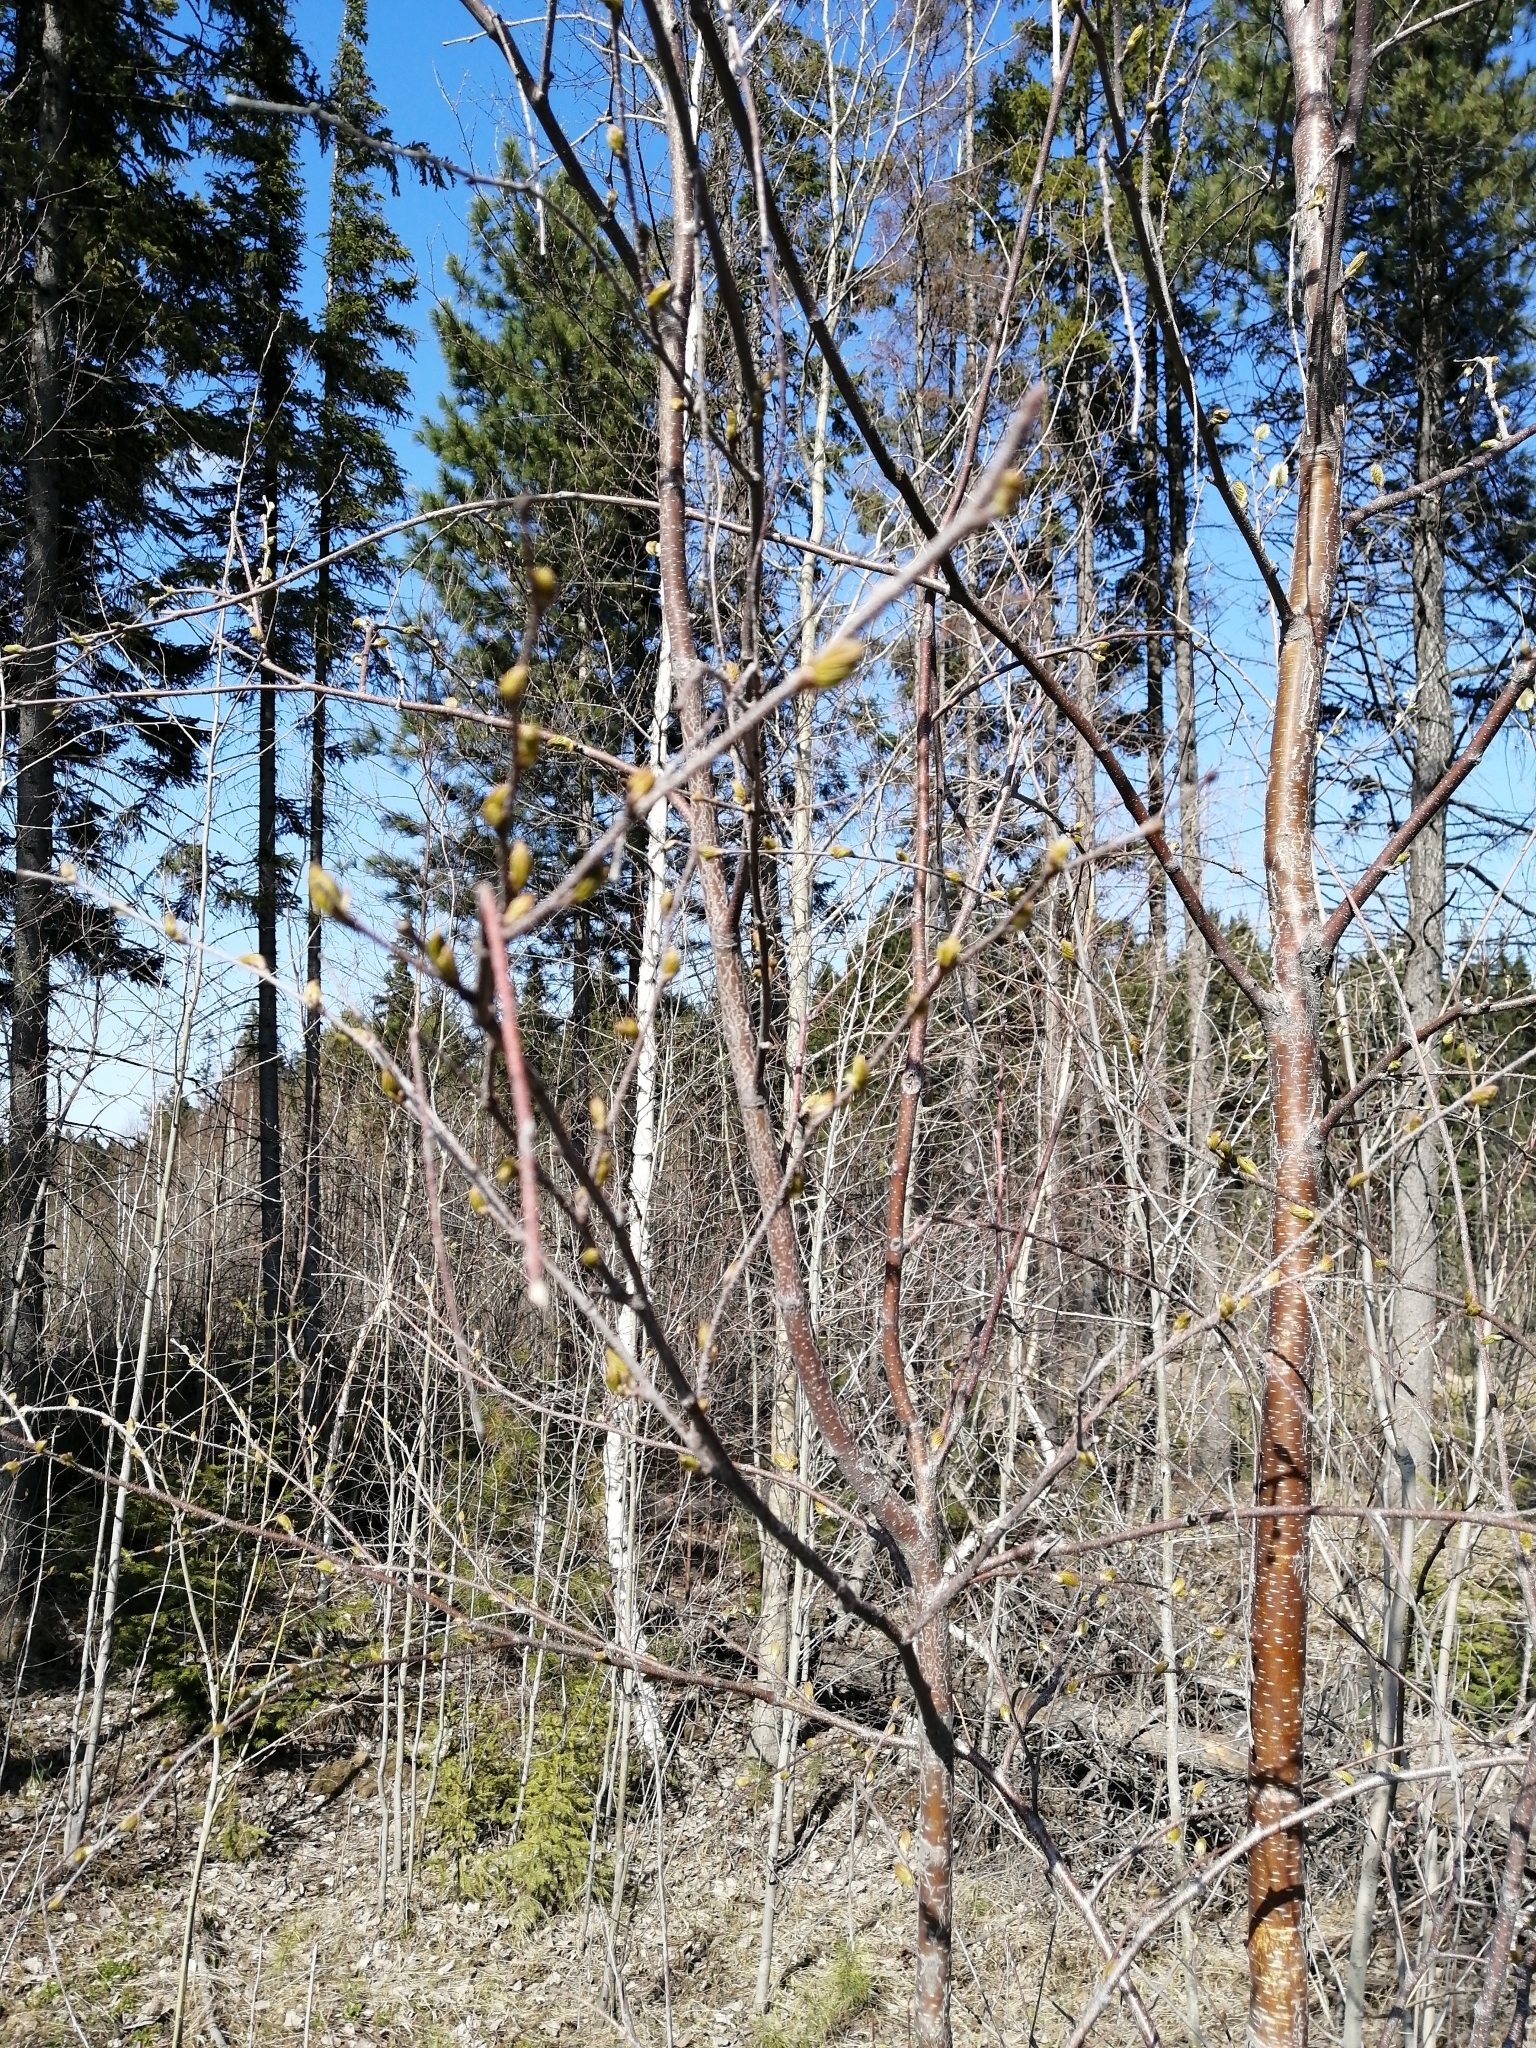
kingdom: Plantae
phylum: Tracheophyta
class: Magnoliopsida
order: Fagales
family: Betulaceae
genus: Betula
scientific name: Betula pubescens
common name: Downy birch
